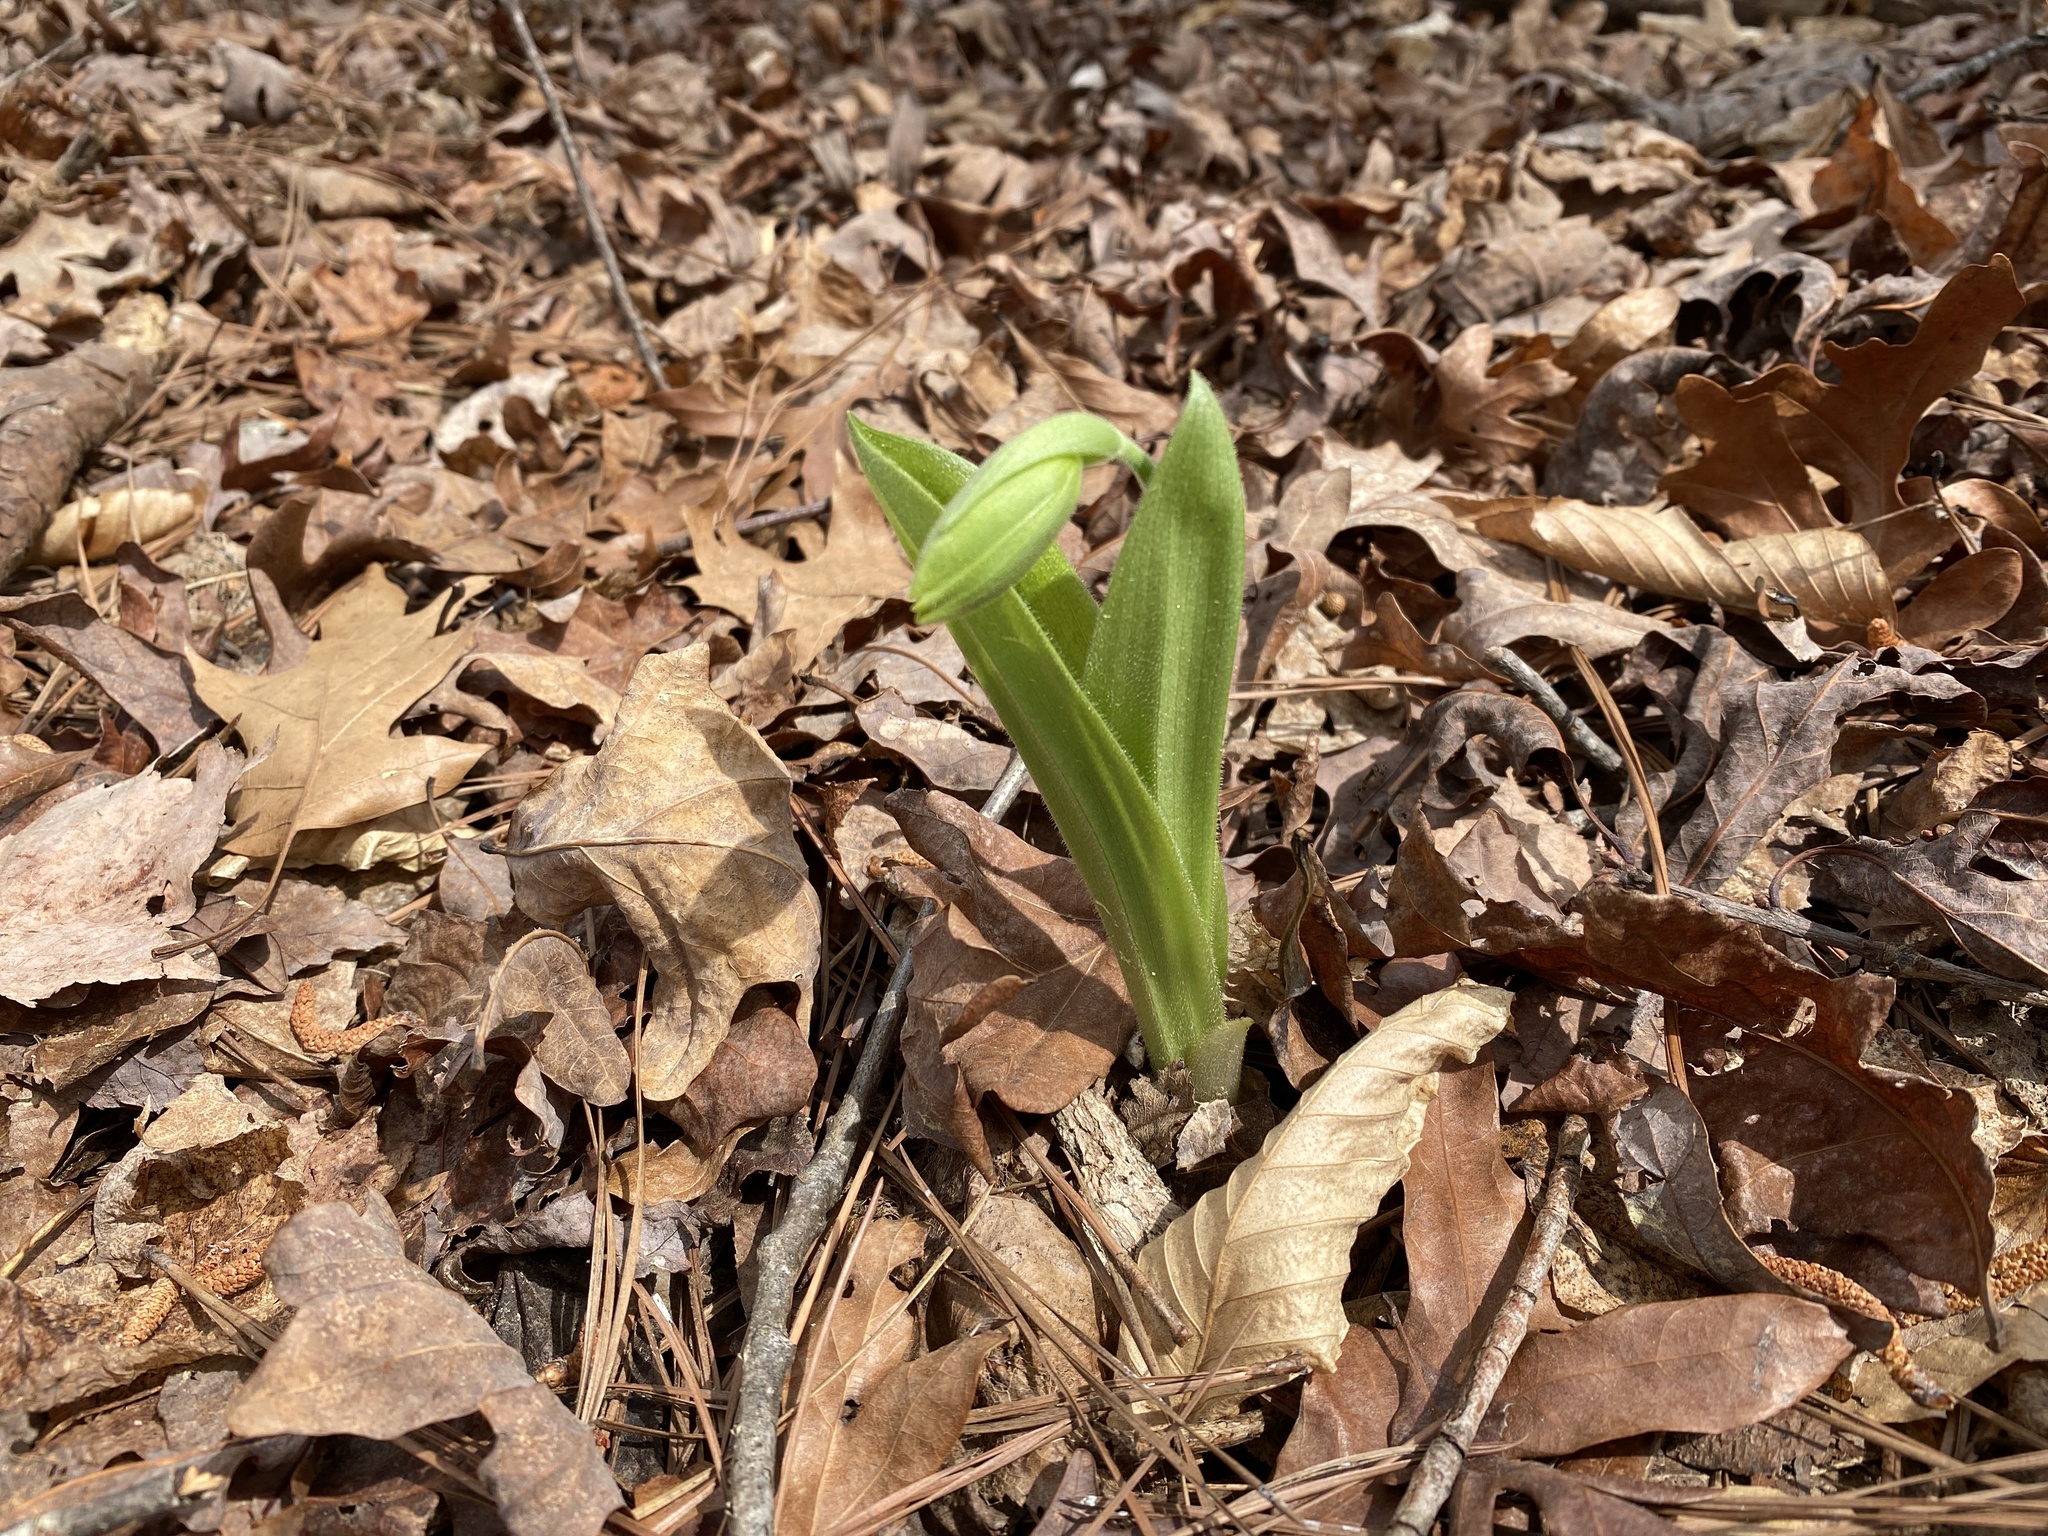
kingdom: Plantae
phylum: Tracheophyta
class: Liliopsida
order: Asparagales
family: Orchidaceae
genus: Cypripedium
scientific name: Cypripedium acaule
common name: Pink lady's-slipper
